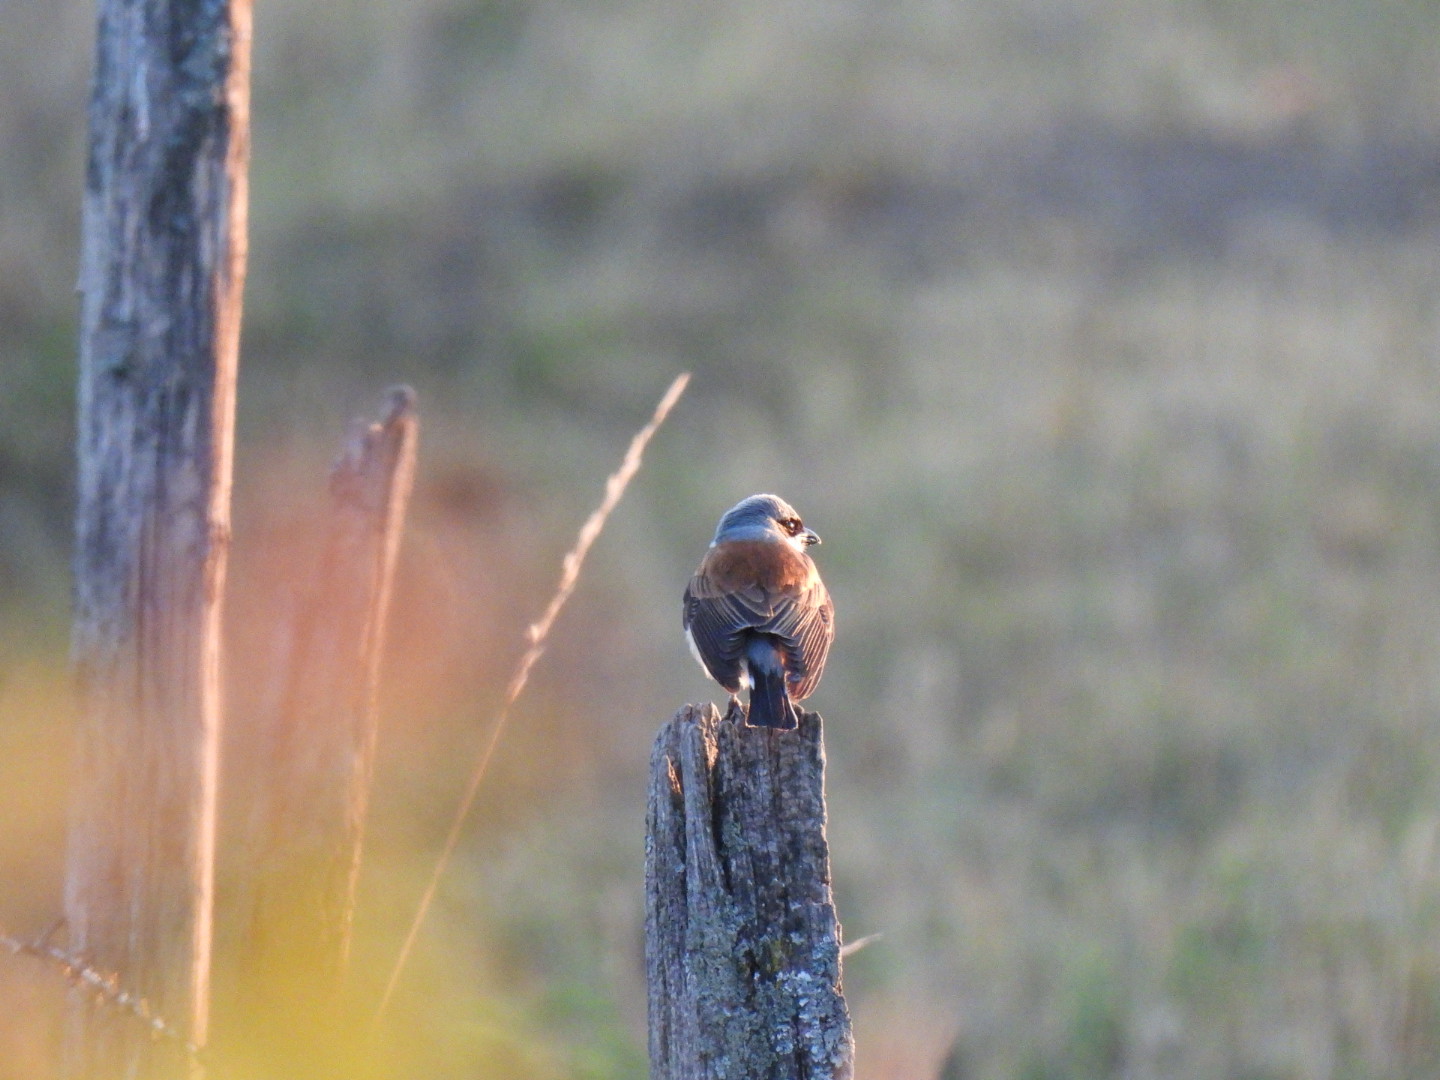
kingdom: Animalia
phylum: Chordata
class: Aves
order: Passeriformes
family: Laniidae
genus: Lanius
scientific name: Lanius collurio
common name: Red-backed shrike
